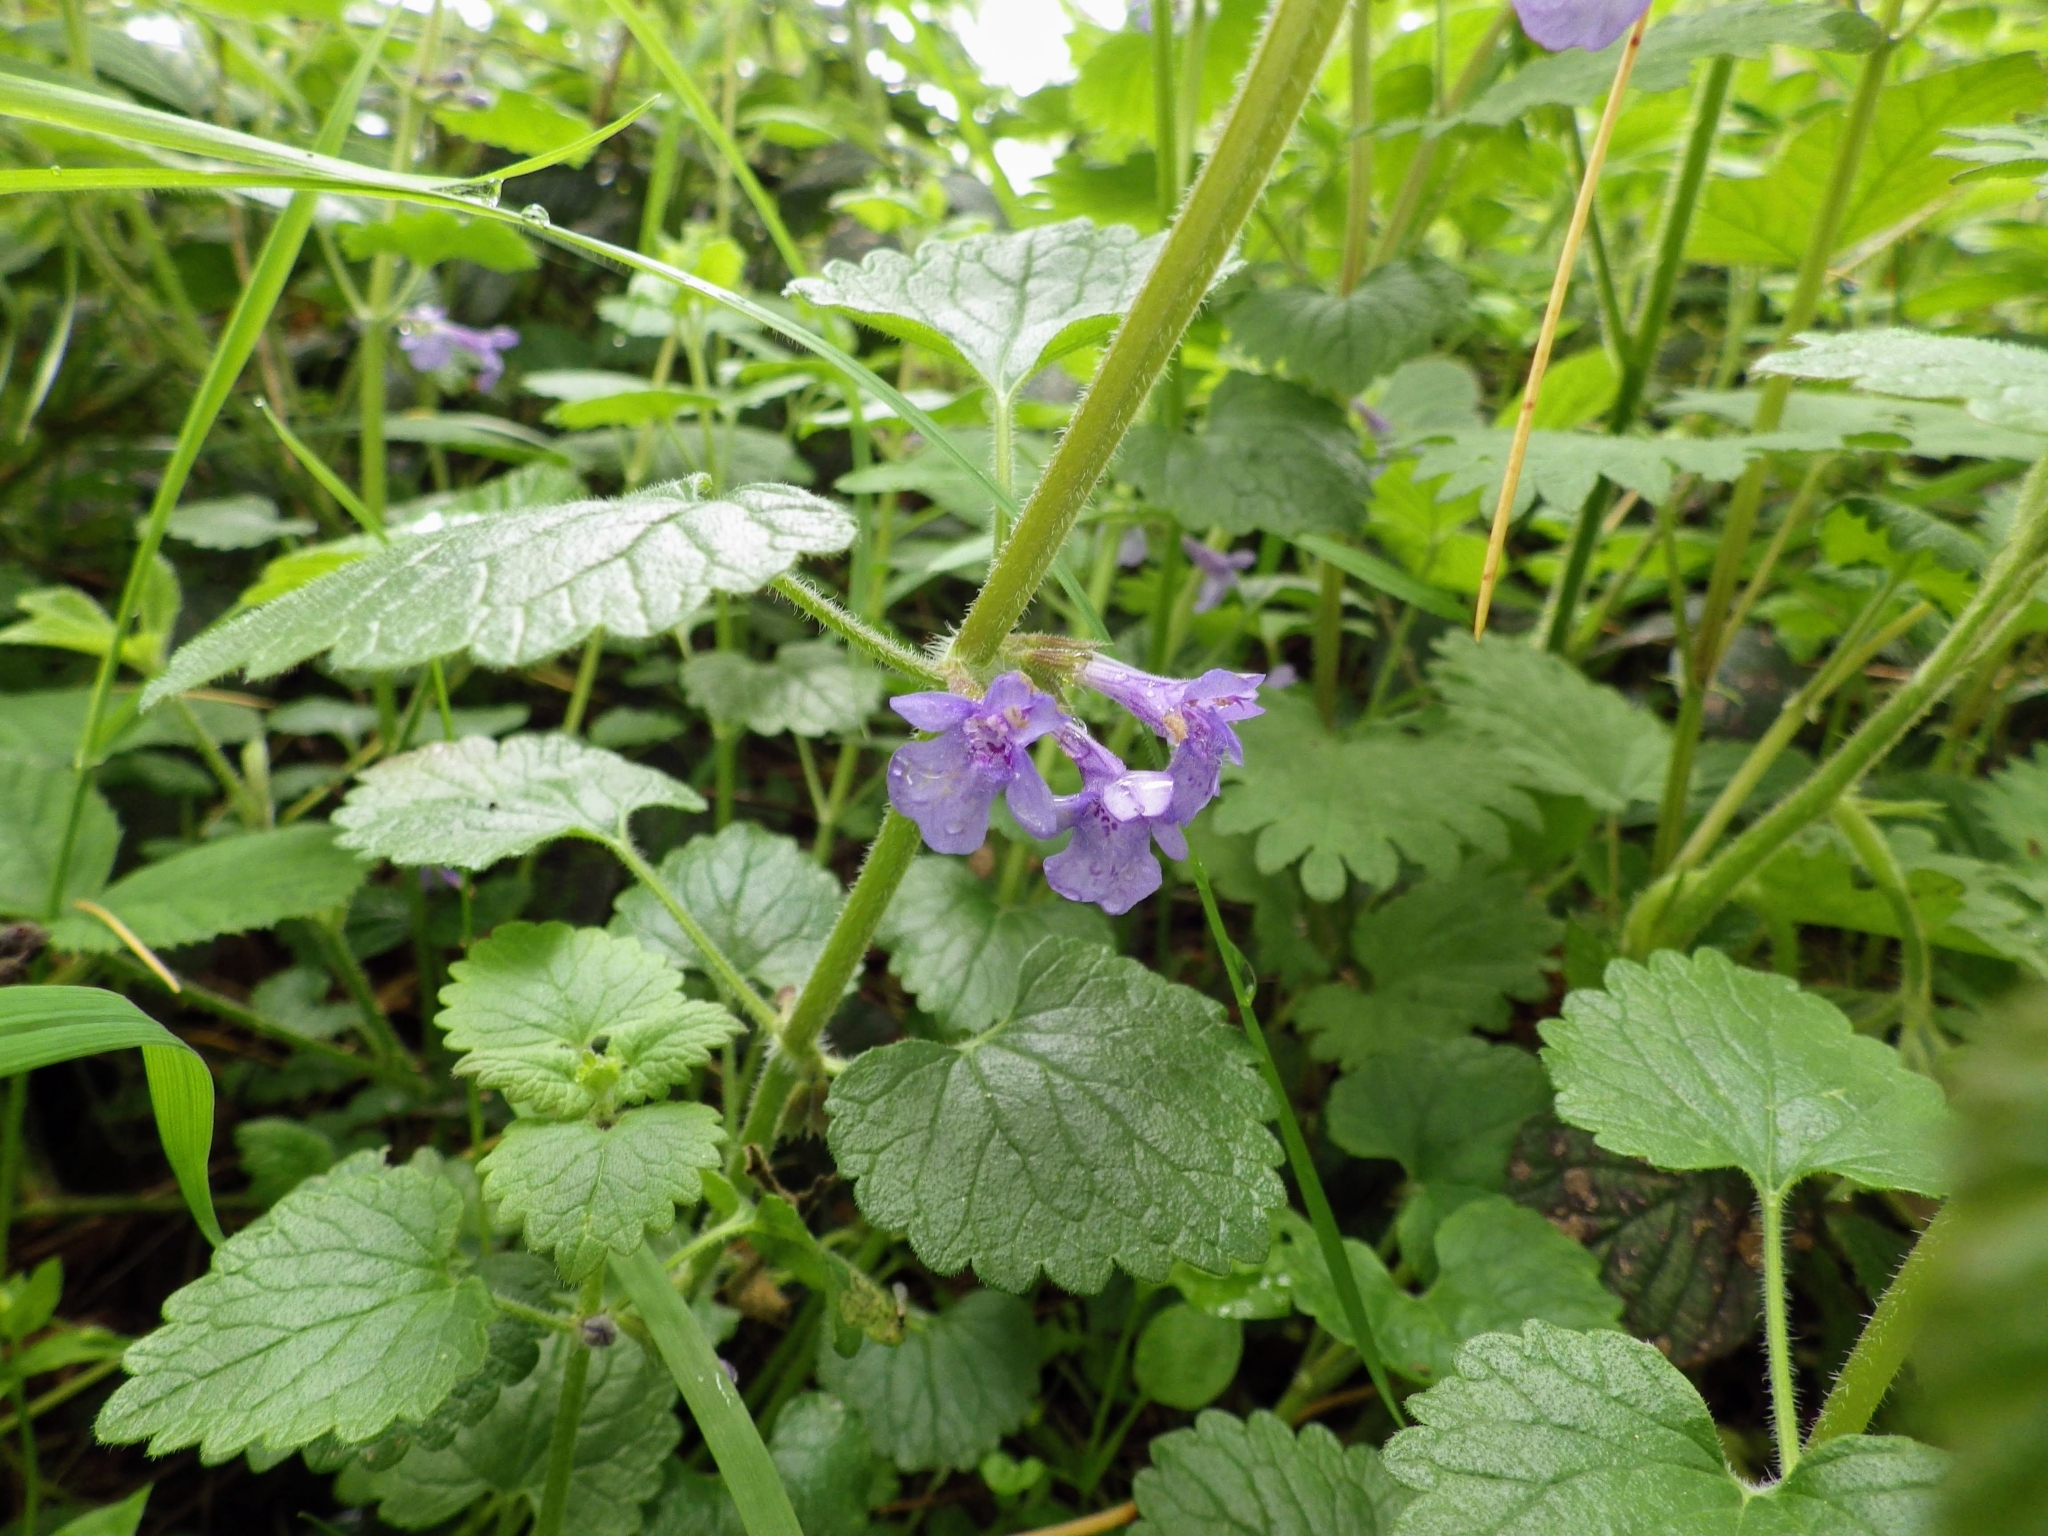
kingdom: Plantae
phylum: Tracheophyta
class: Magnoliopsida
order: Lamiales
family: Lamiaceae
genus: Glechoma
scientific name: Glechoma hederacea
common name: Ground ivy
